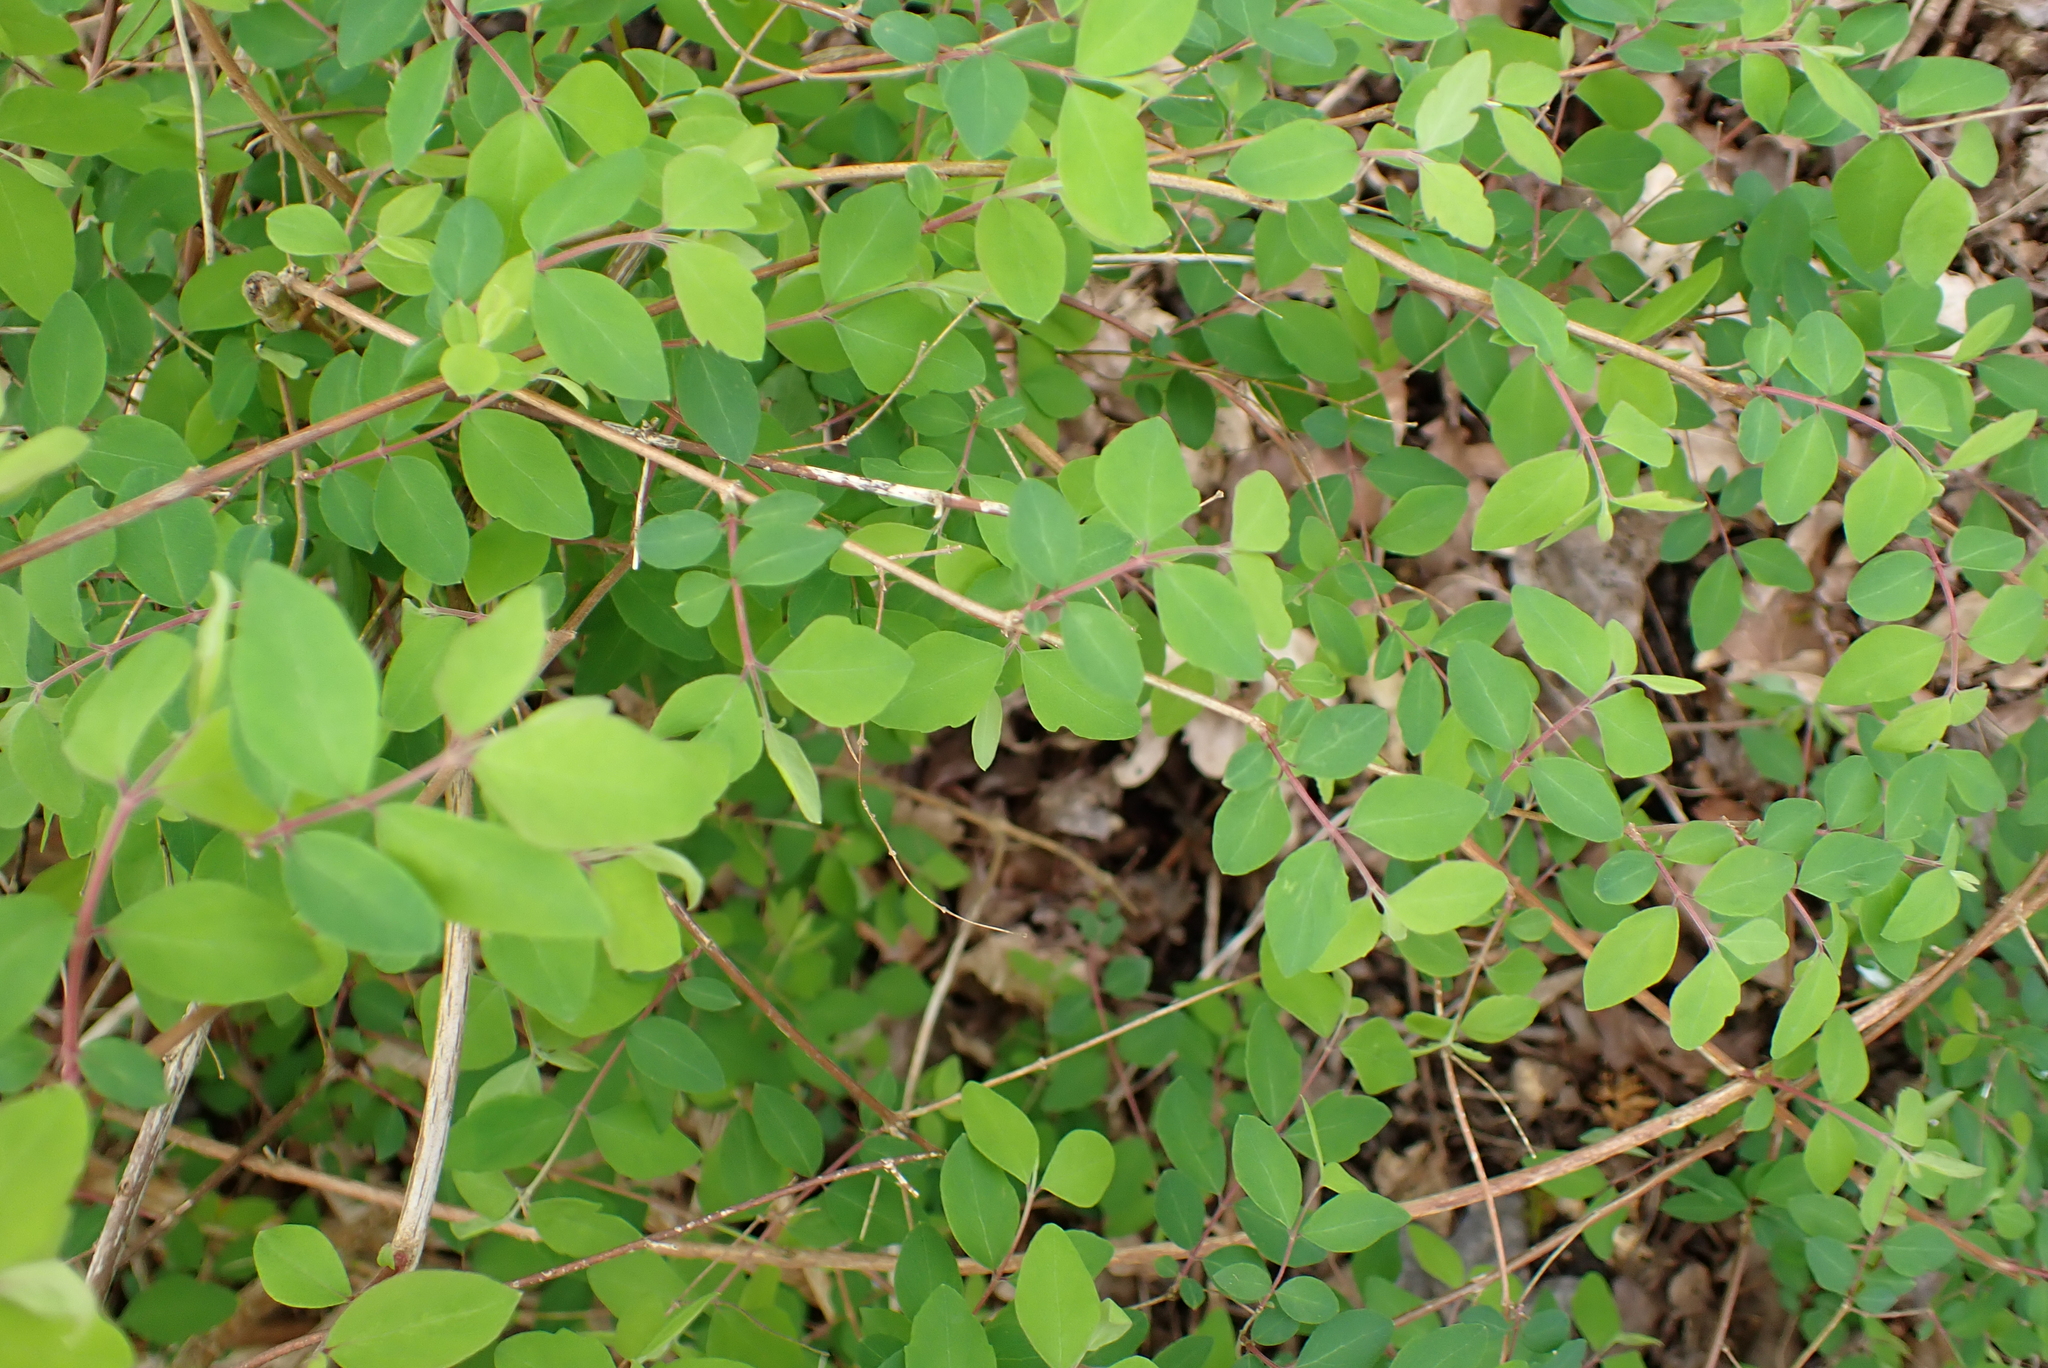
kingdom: Plantae
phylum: Tracheophyta
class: Magnoliopsida
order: Dipsacales
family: Caprifoliaceae
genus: Symphoricarpos
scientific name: Symphoricarpos albus
